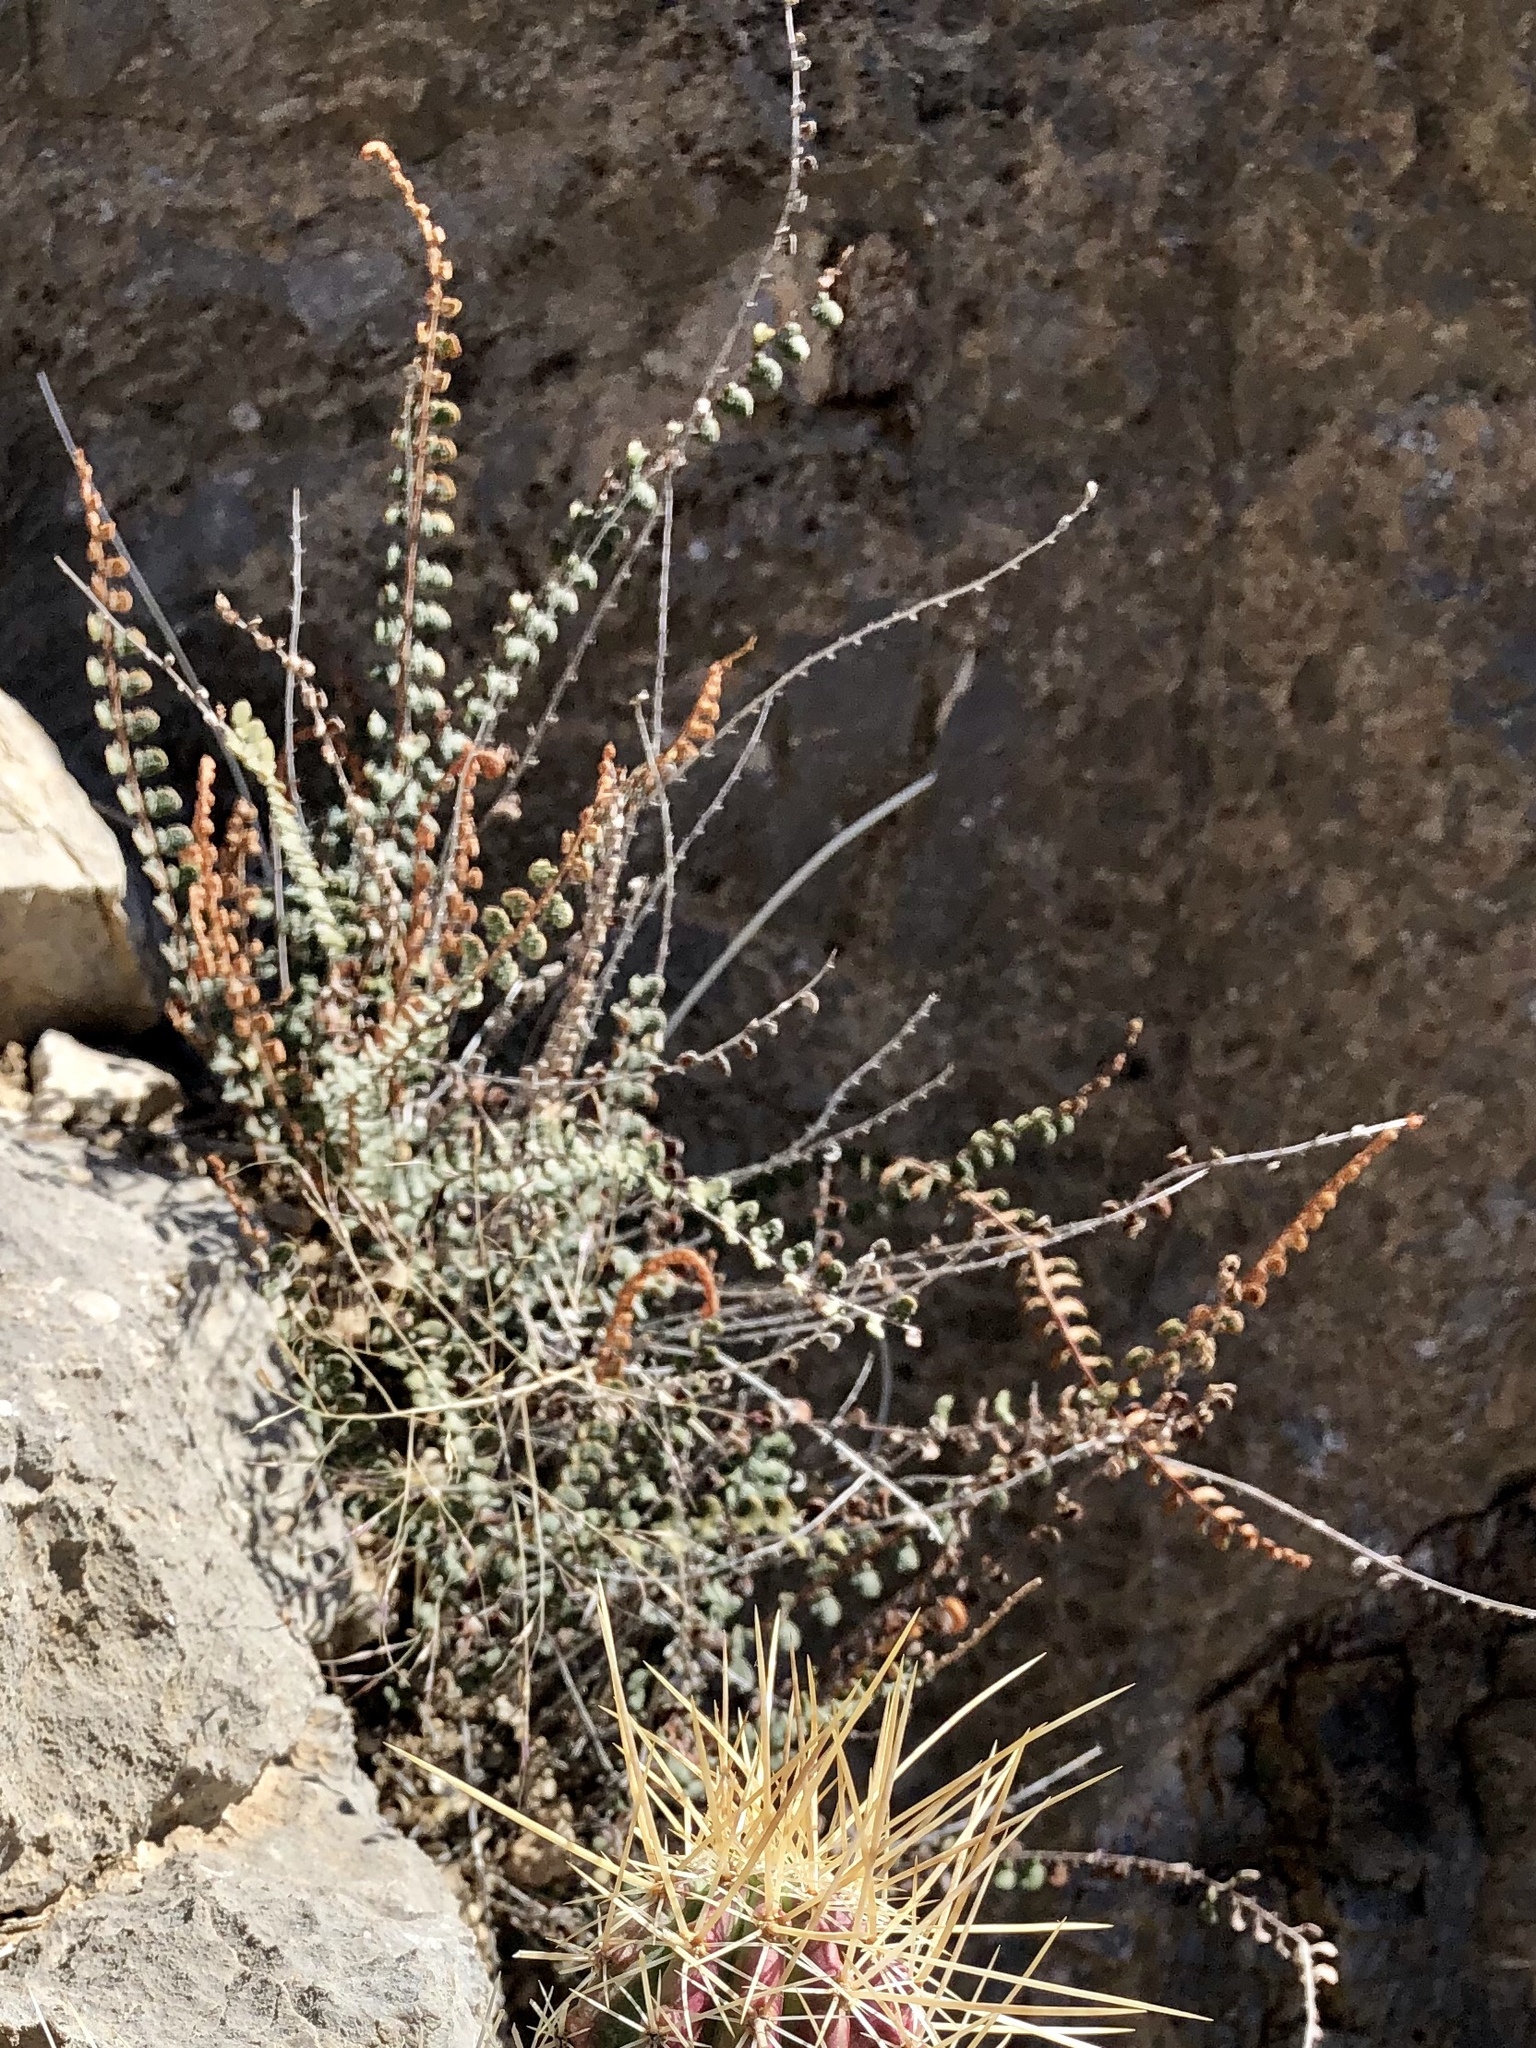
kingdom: Plantae
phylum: Tracheophyta
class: Polypodiopsida
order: Polypodiales
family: Pteridaceae
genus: Astrolepis
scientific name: Astrolepis cochisensis
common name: Scaly cloak fern
